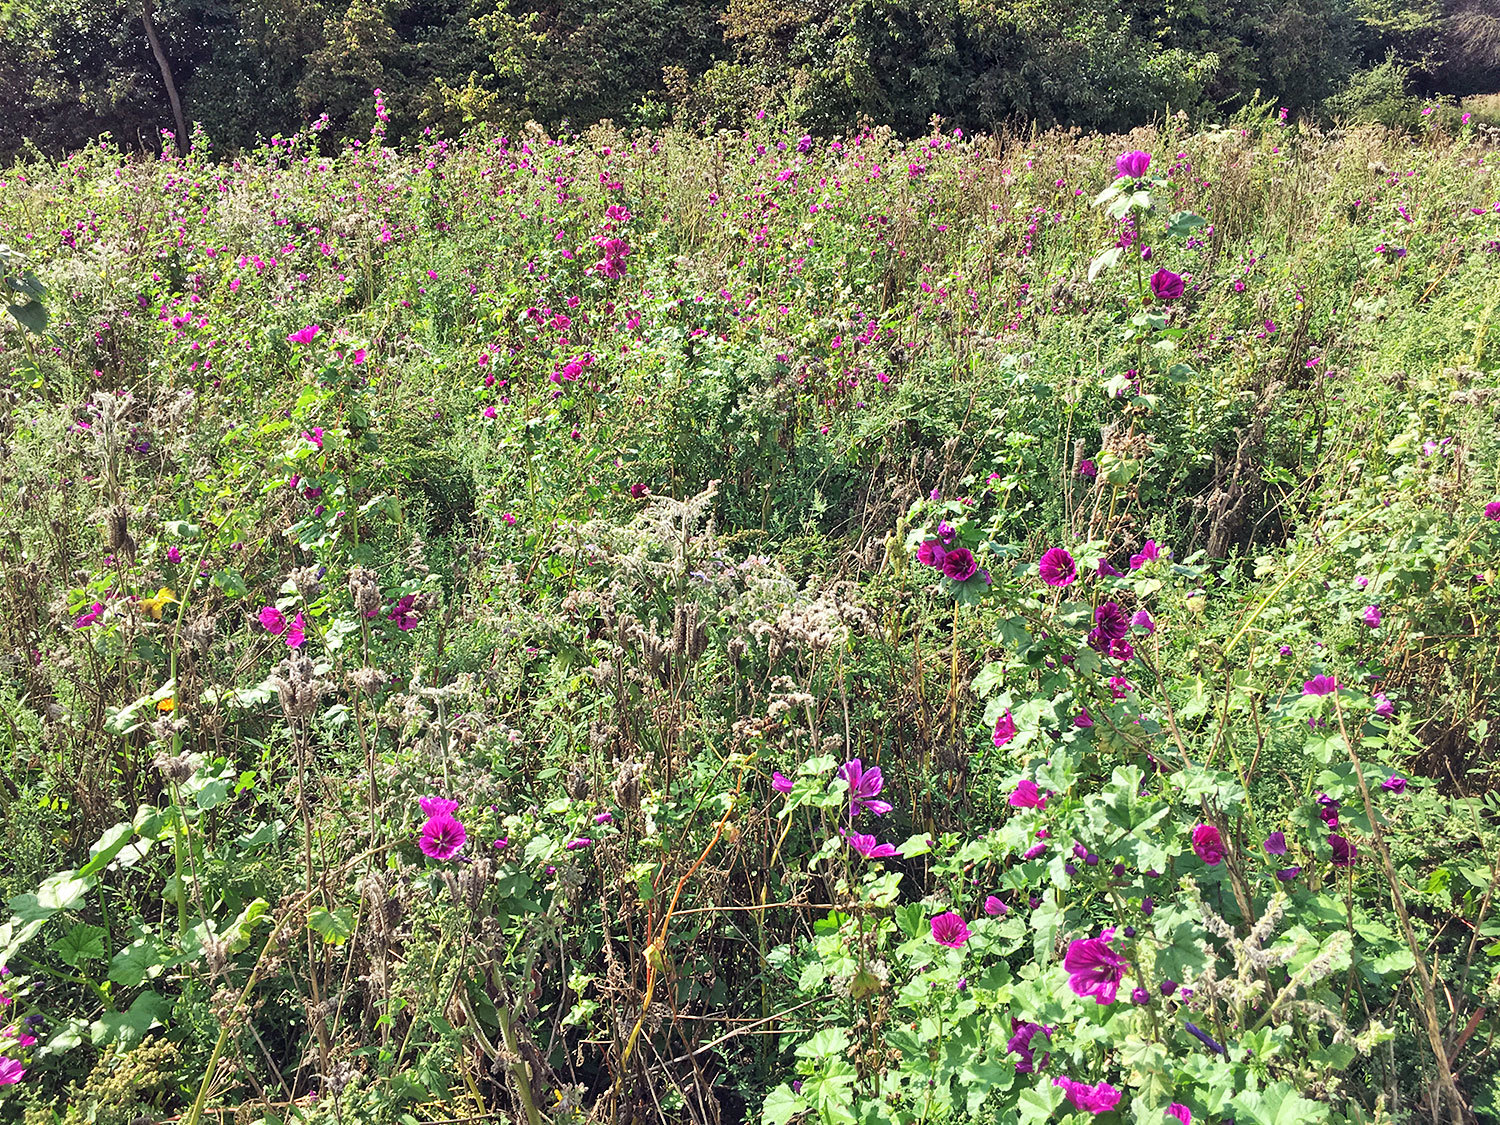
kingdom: Plantae
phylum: Tracheophyta
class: Magnoliopsida
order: Malvales
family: Malvaceae
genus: Malva
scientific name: Malva sylvestris
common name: Common mallow
